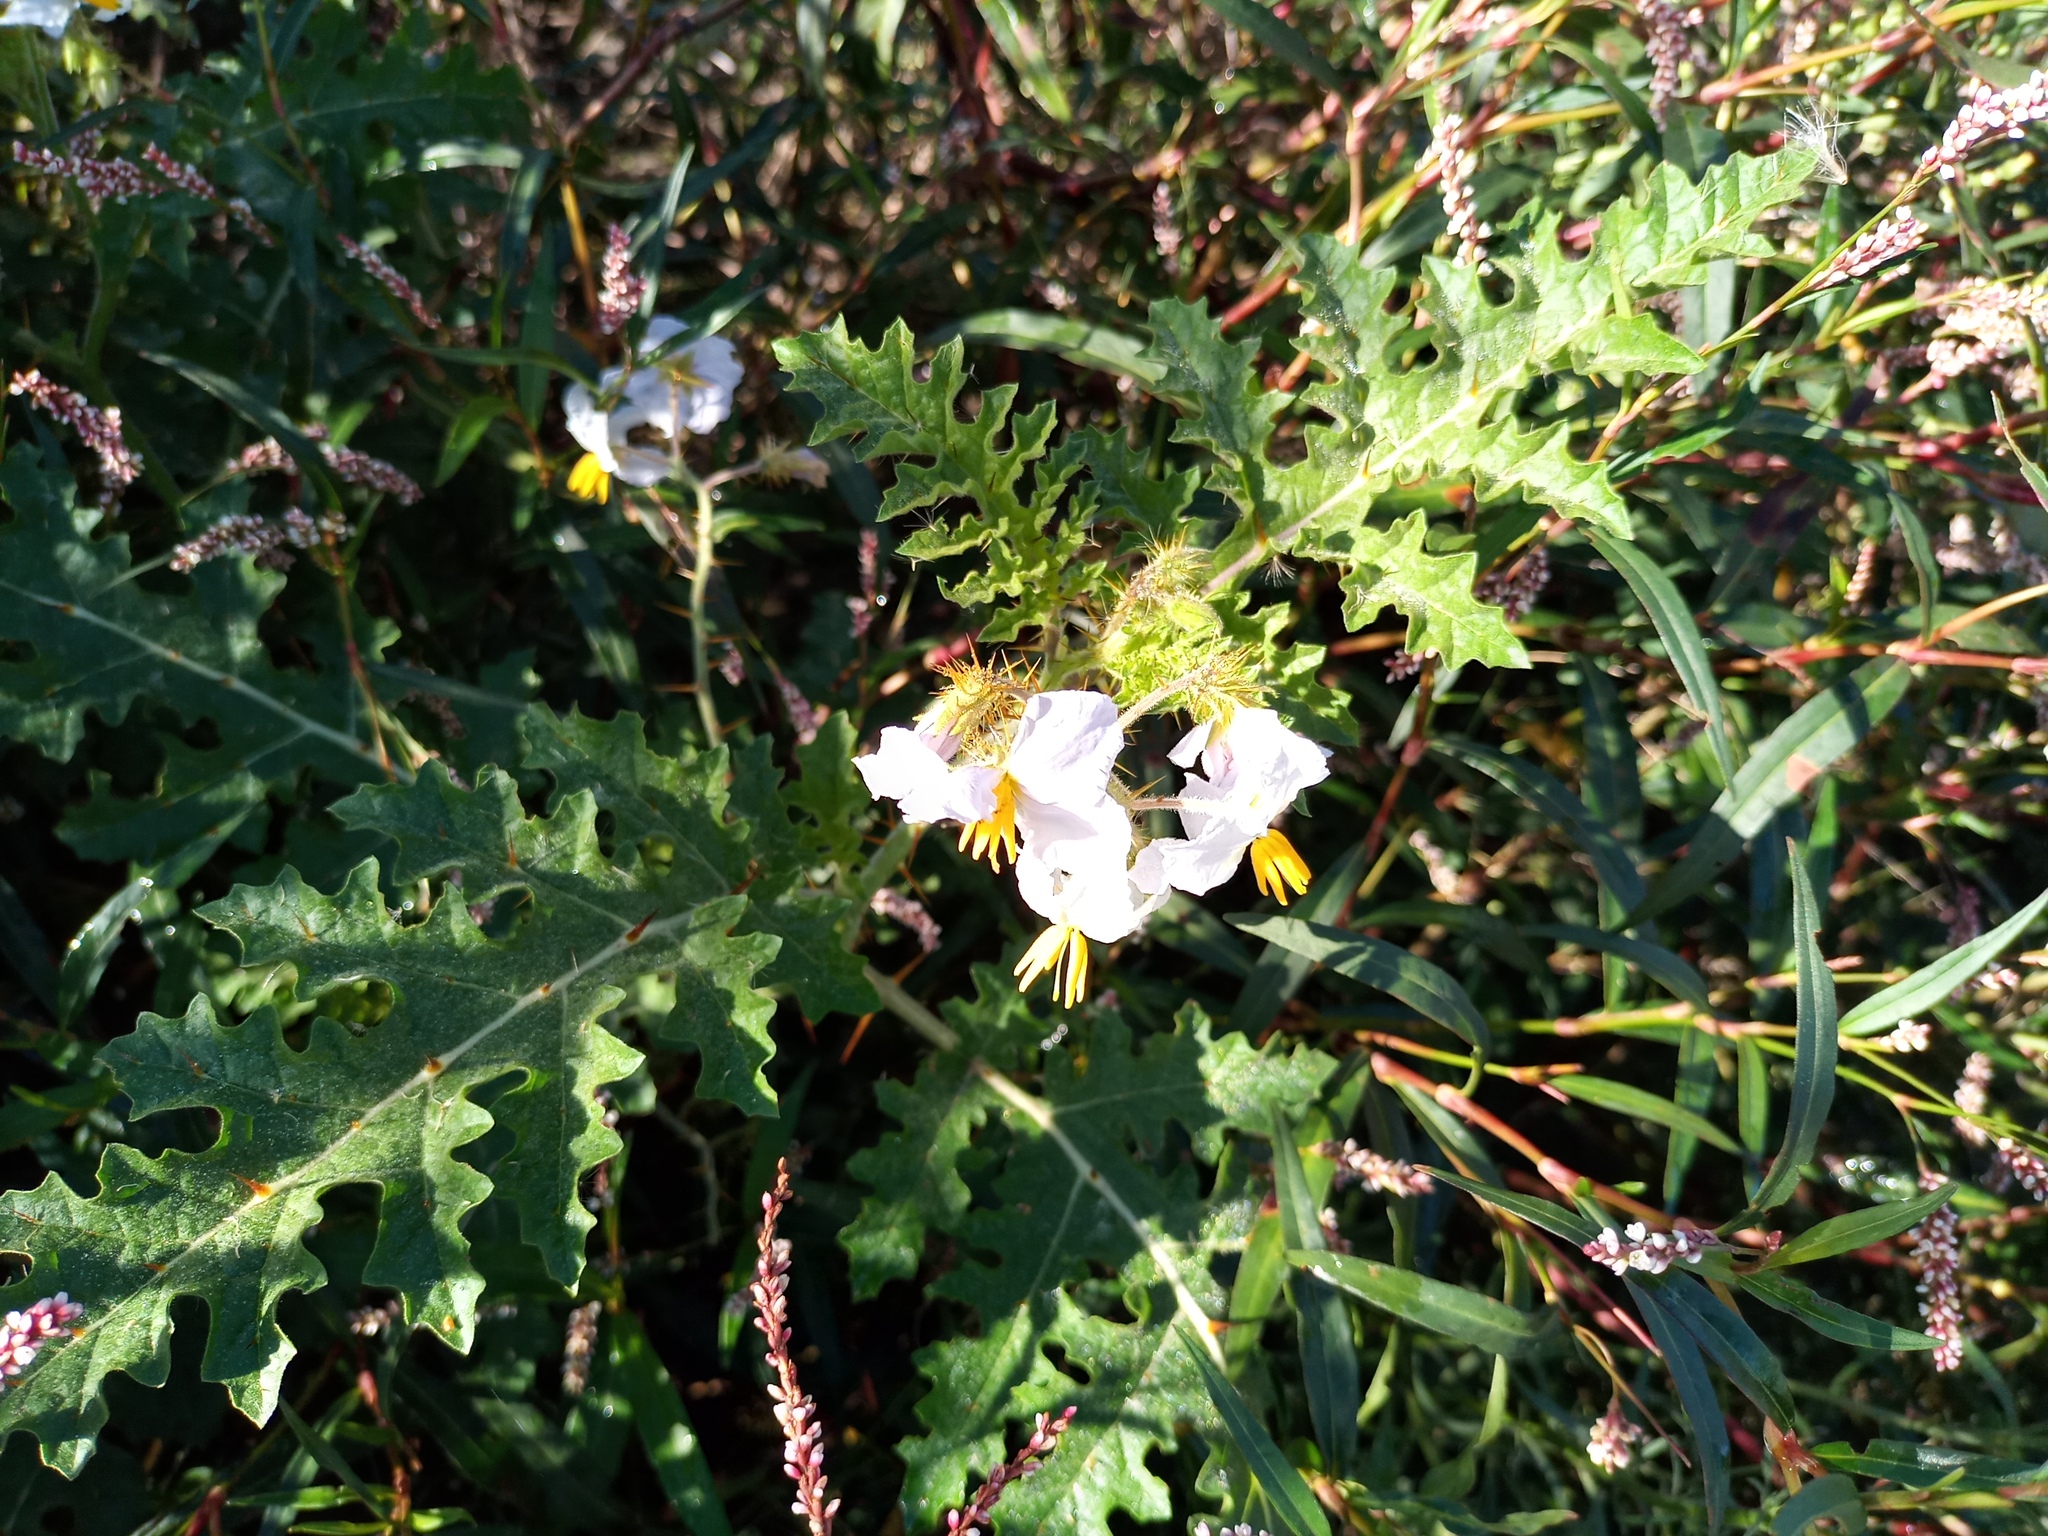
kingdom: Plantae
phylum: Tracheophyta
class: Magnoliopsida
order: Solanales
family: Solanaceae
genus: Solanum
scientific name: Solanum sisymbriifolium
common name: Red buffalo-bur
